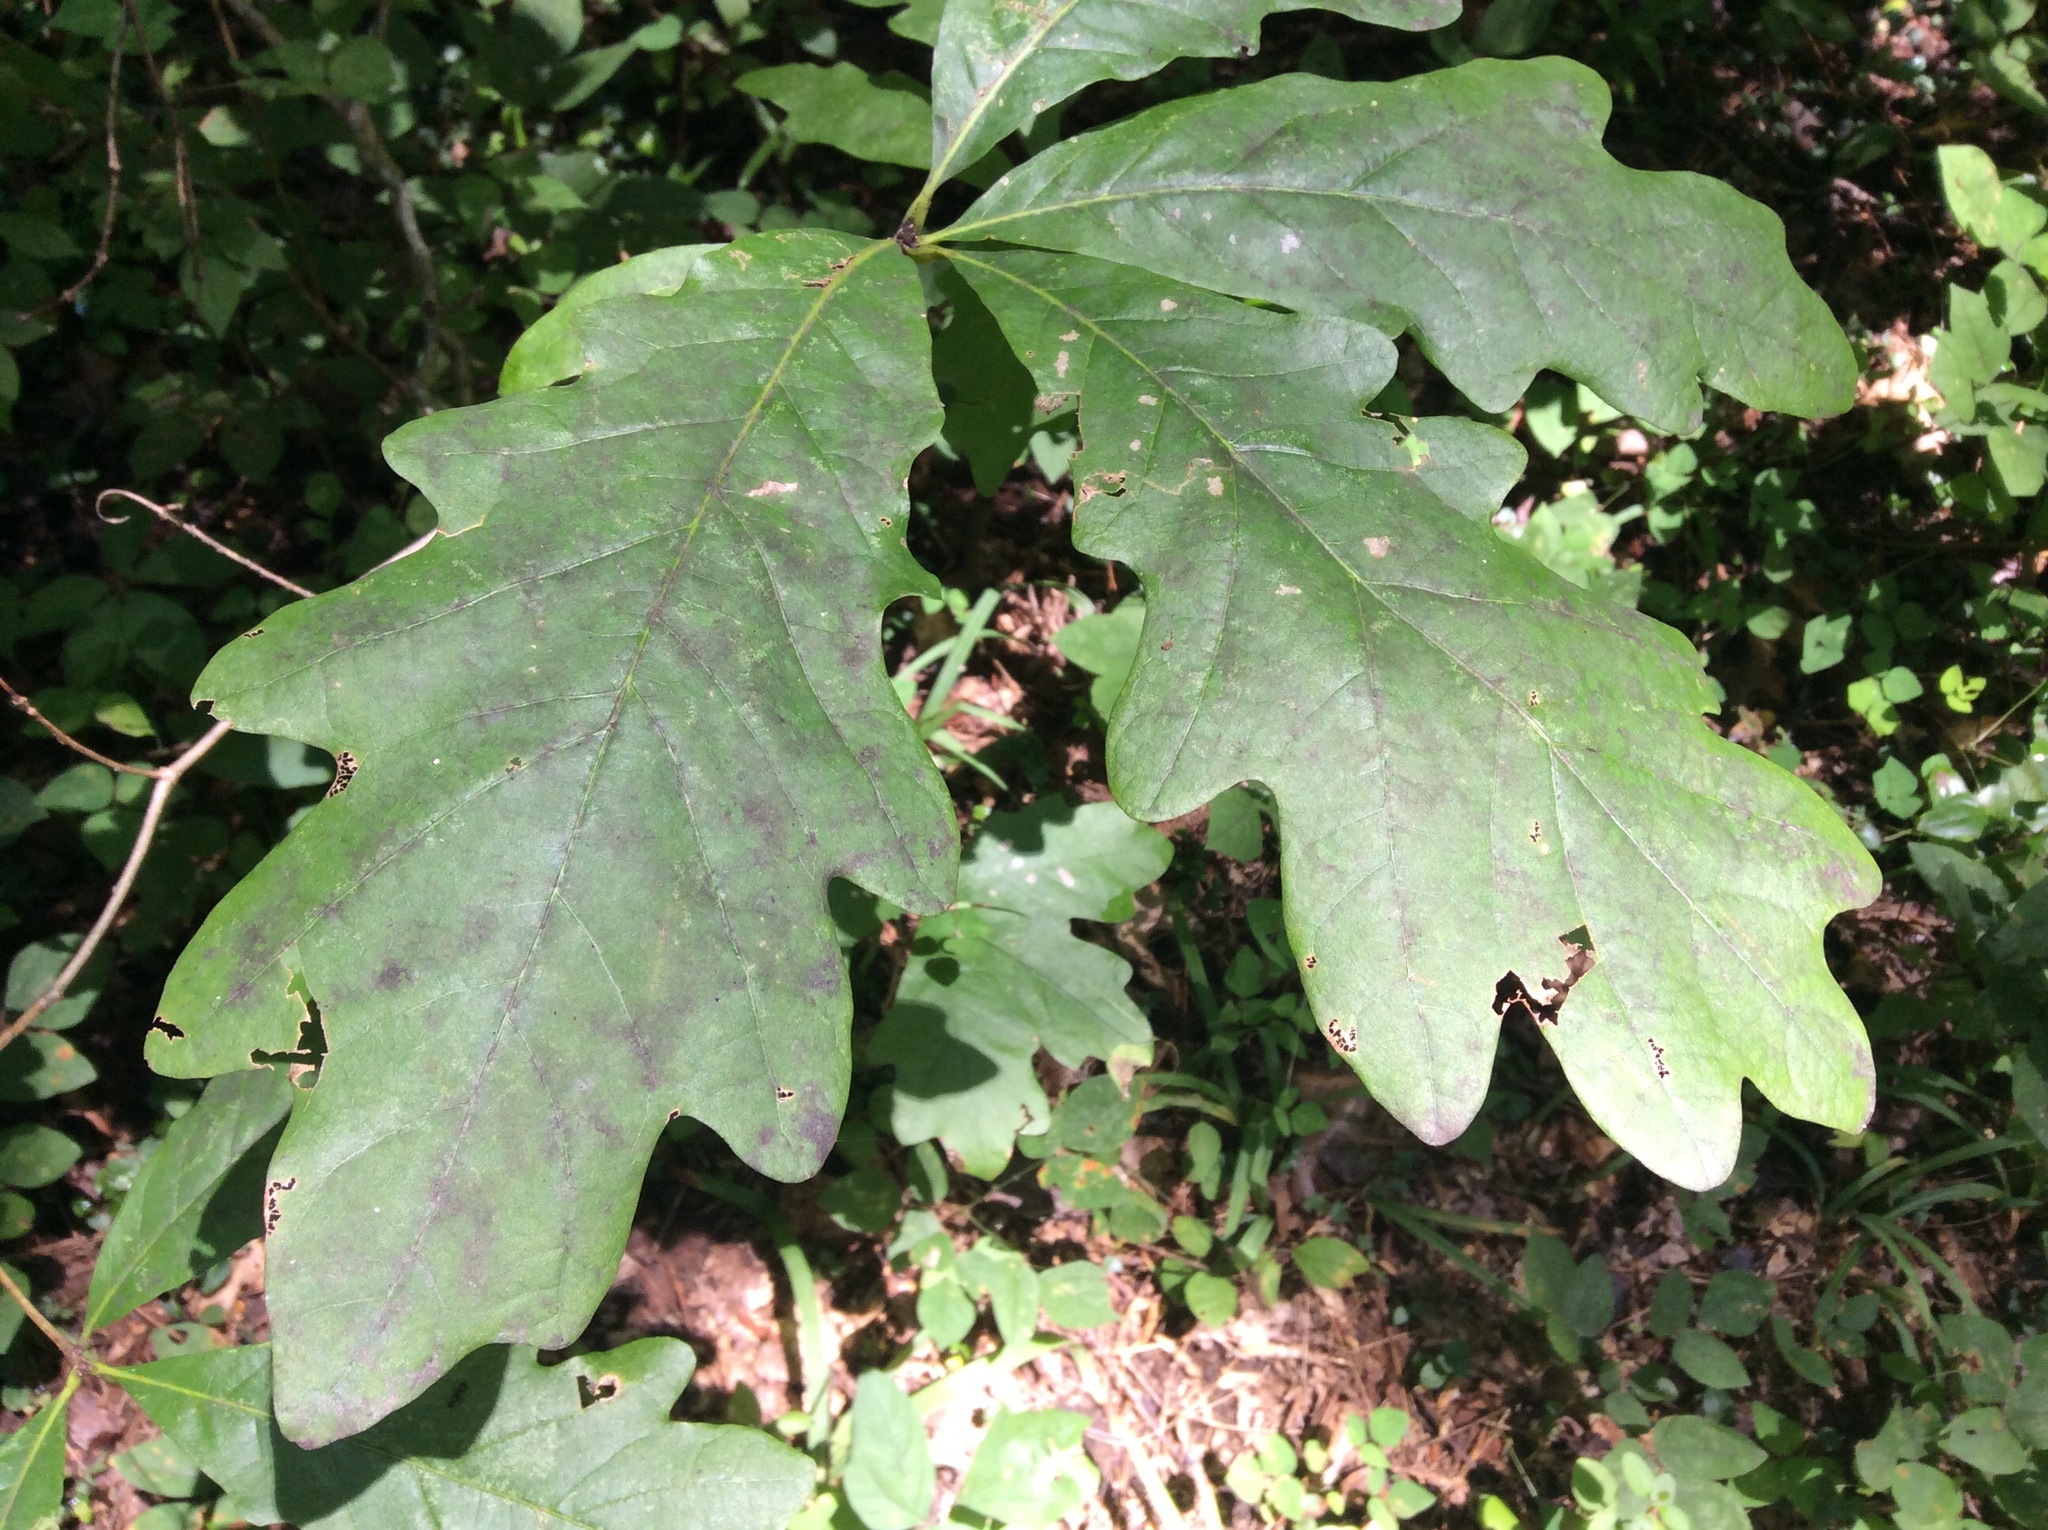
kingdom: Plantae
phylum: Tracheophyta
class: Magnoliopsida
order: Fagales
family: Fagaceae
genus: Quercus
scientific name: Quercus alba
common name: White oak
